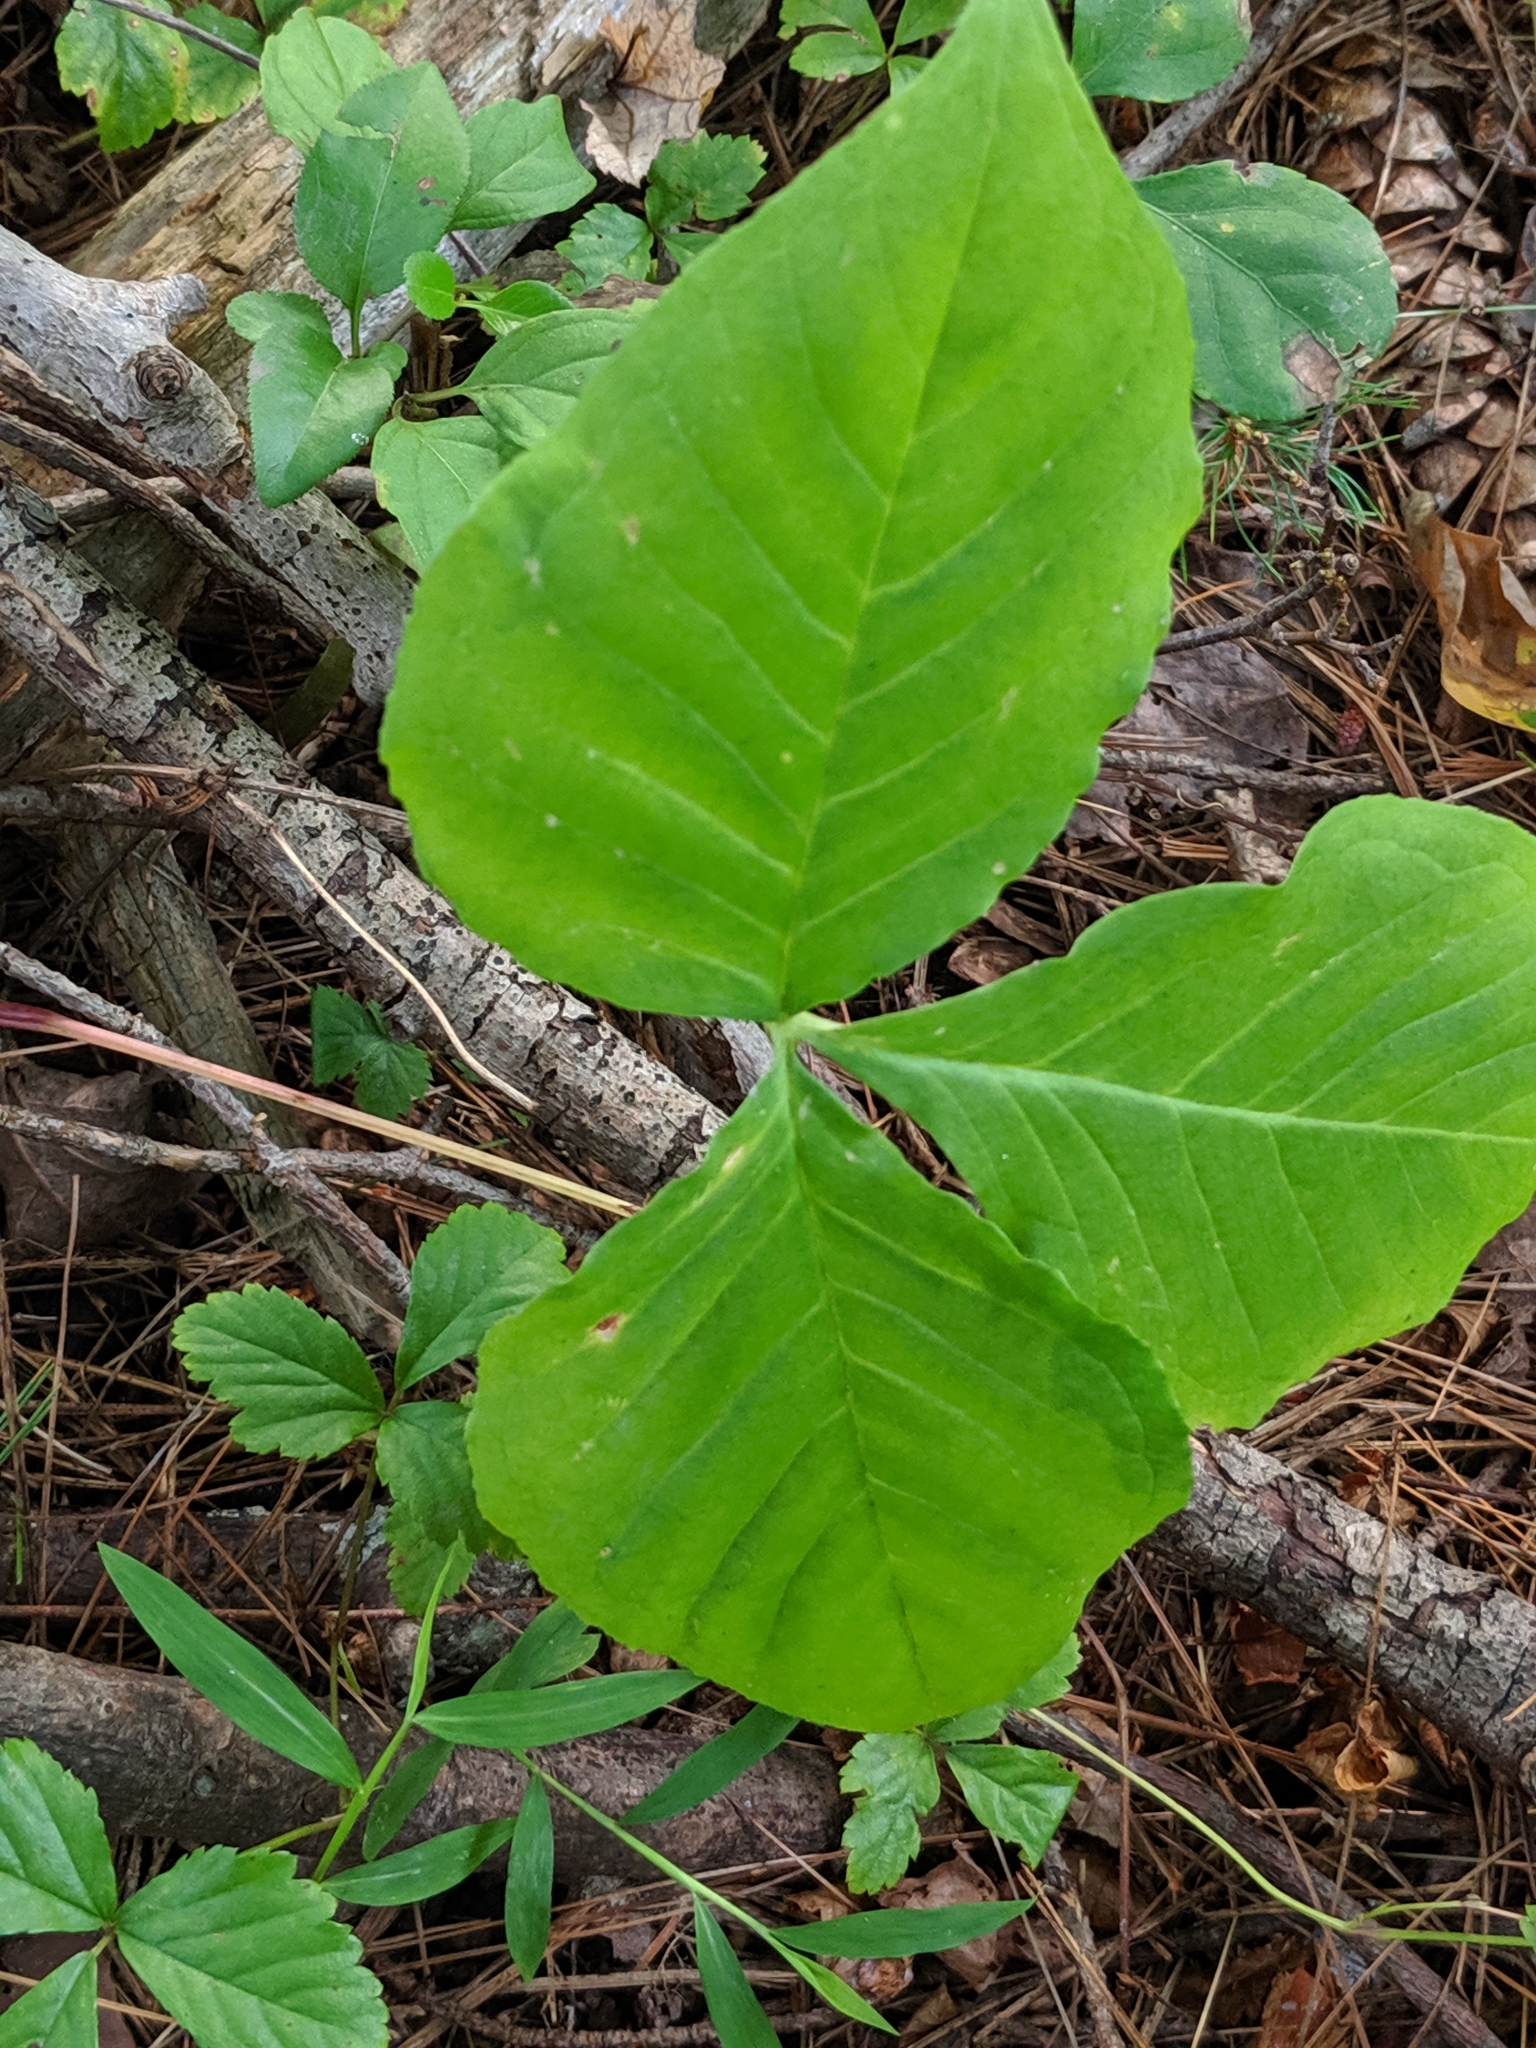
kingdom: Plantae
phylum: Tracheophyta
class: Liliopsida
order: Alismatales
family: Araceae
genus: Arisaema
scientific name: Arisaema triphyllum
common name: Jack-in-the-pulpit
